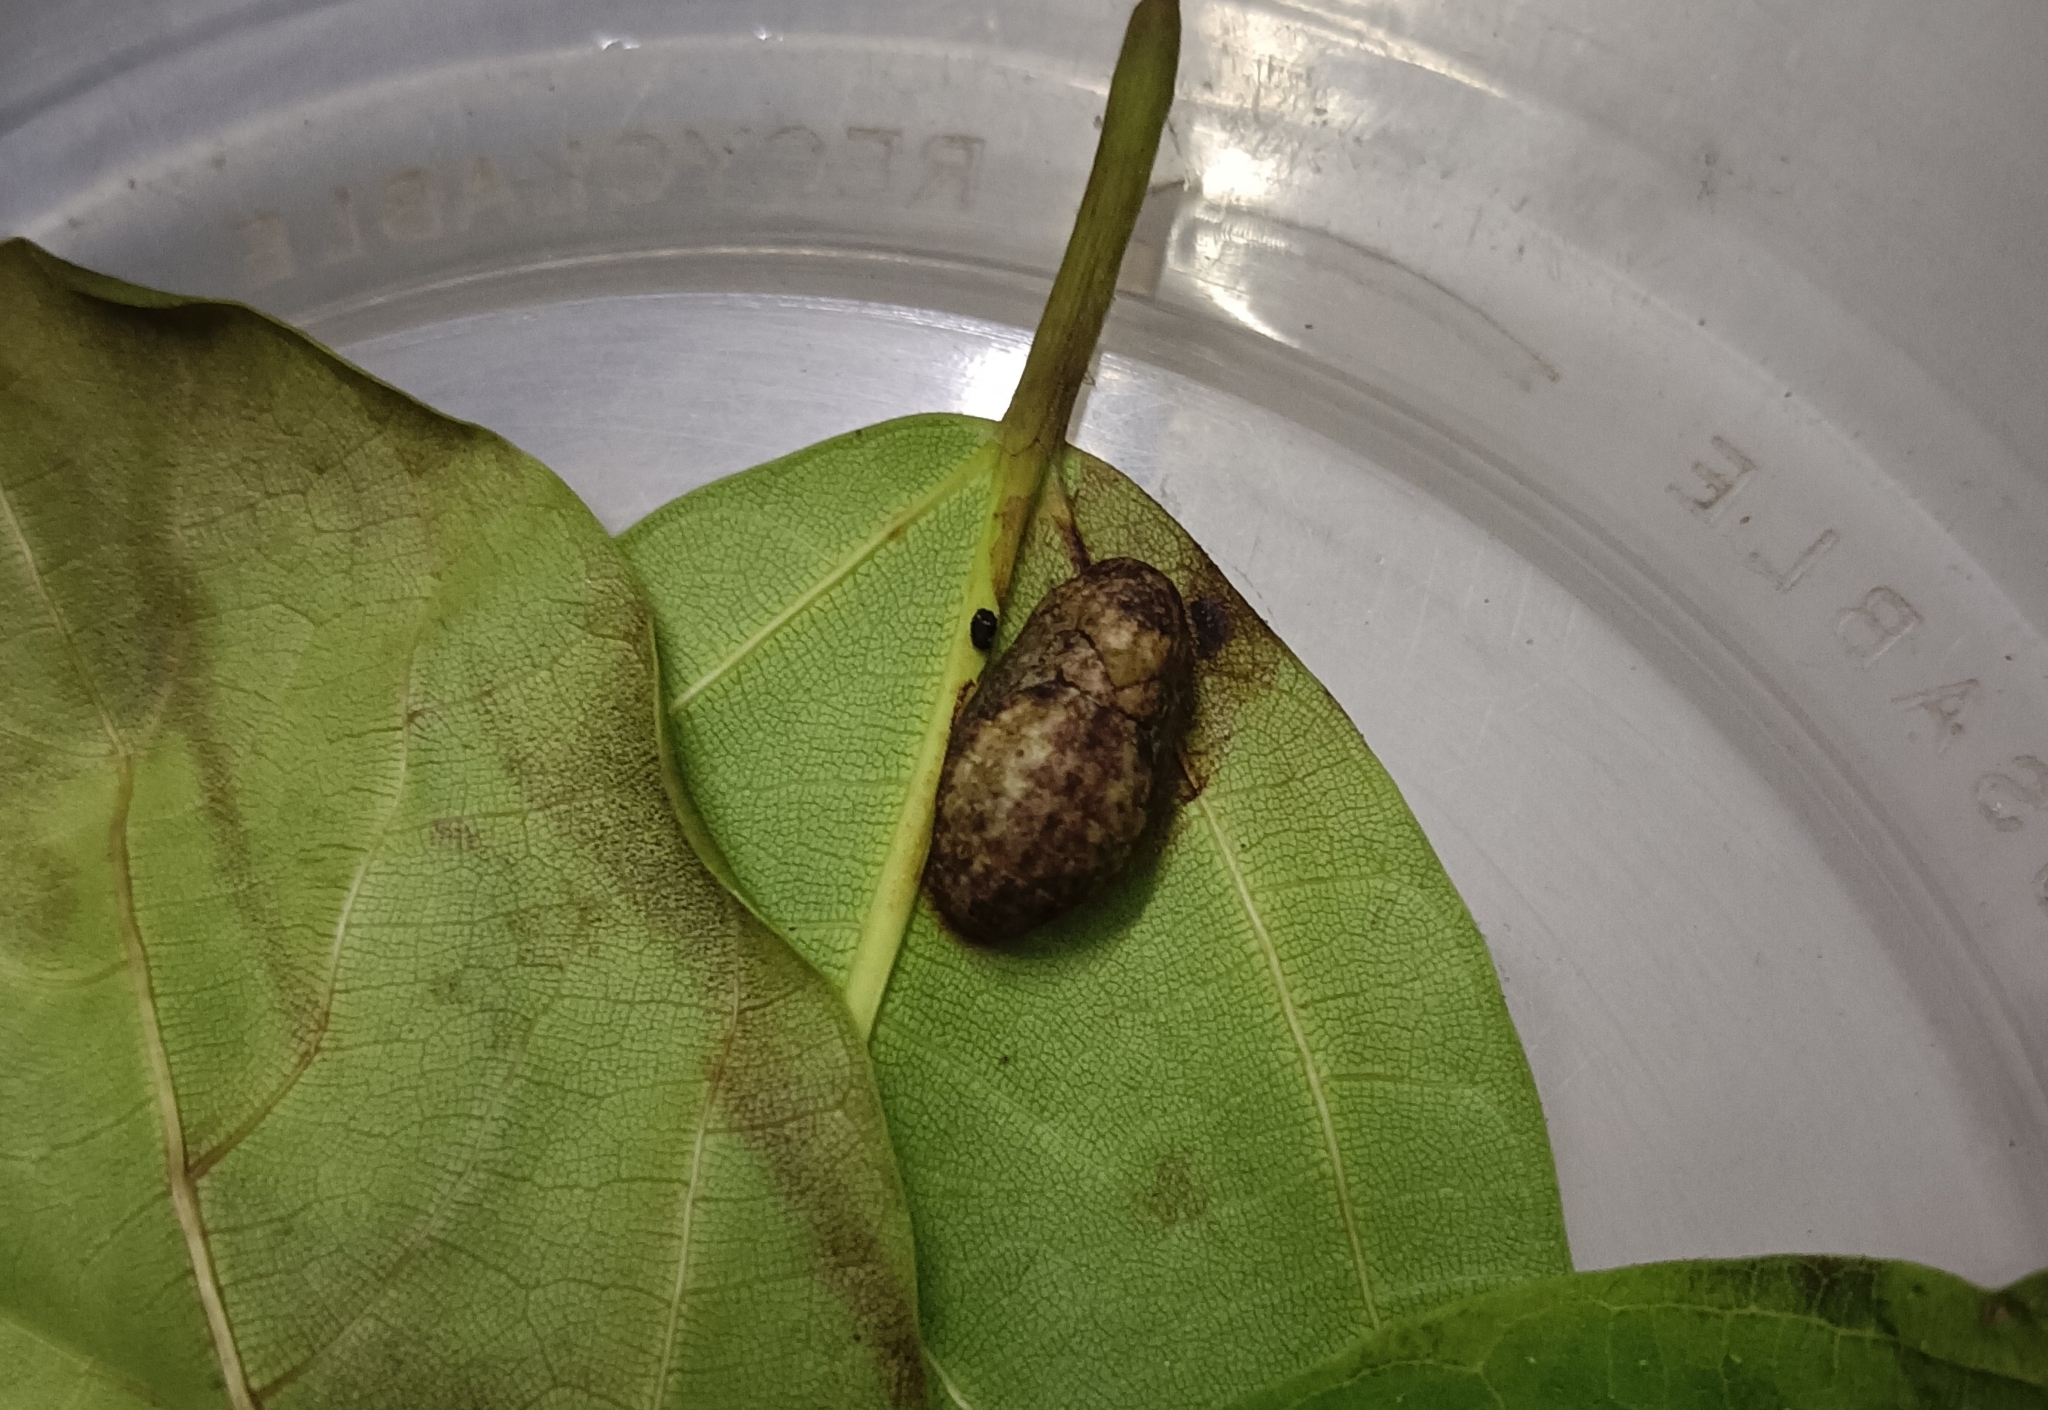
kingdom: Animalia
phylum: Arthropoda
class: Insecta
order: Lepidoptera
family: Lycaenidae
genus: Iraota
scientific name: Iraota timoleon
